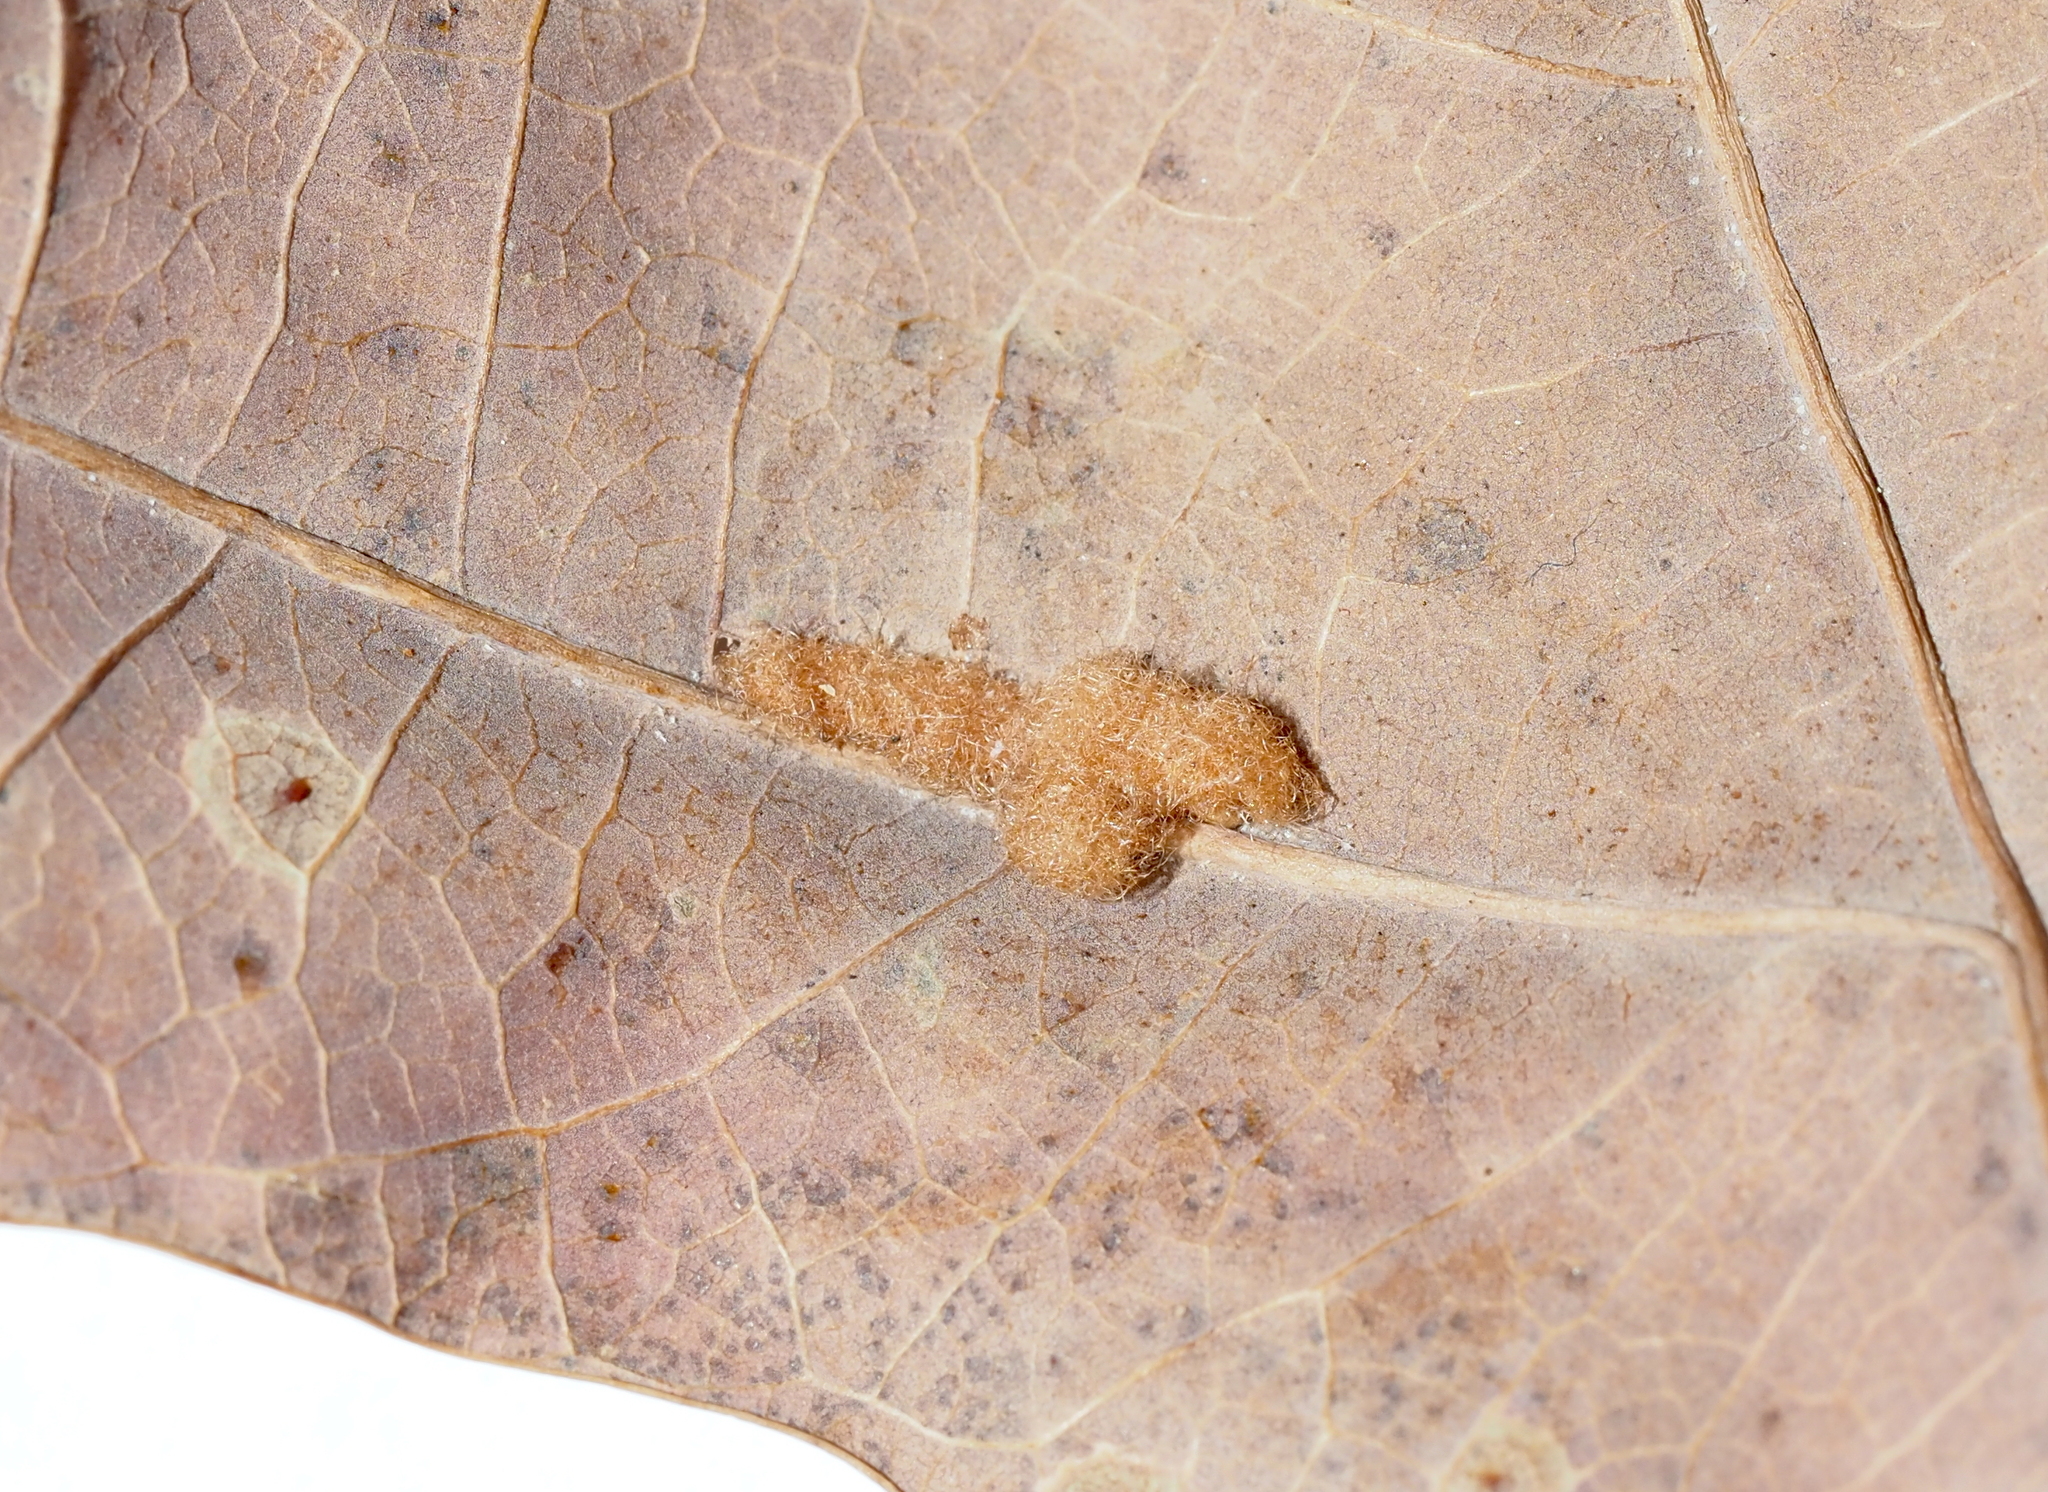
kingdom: Animalia
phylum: Arthropoda
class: Insecta
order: Hymenoptera
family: Cynipidae
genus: Neuroterus
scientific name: Neuroterus quercusverrucarum
